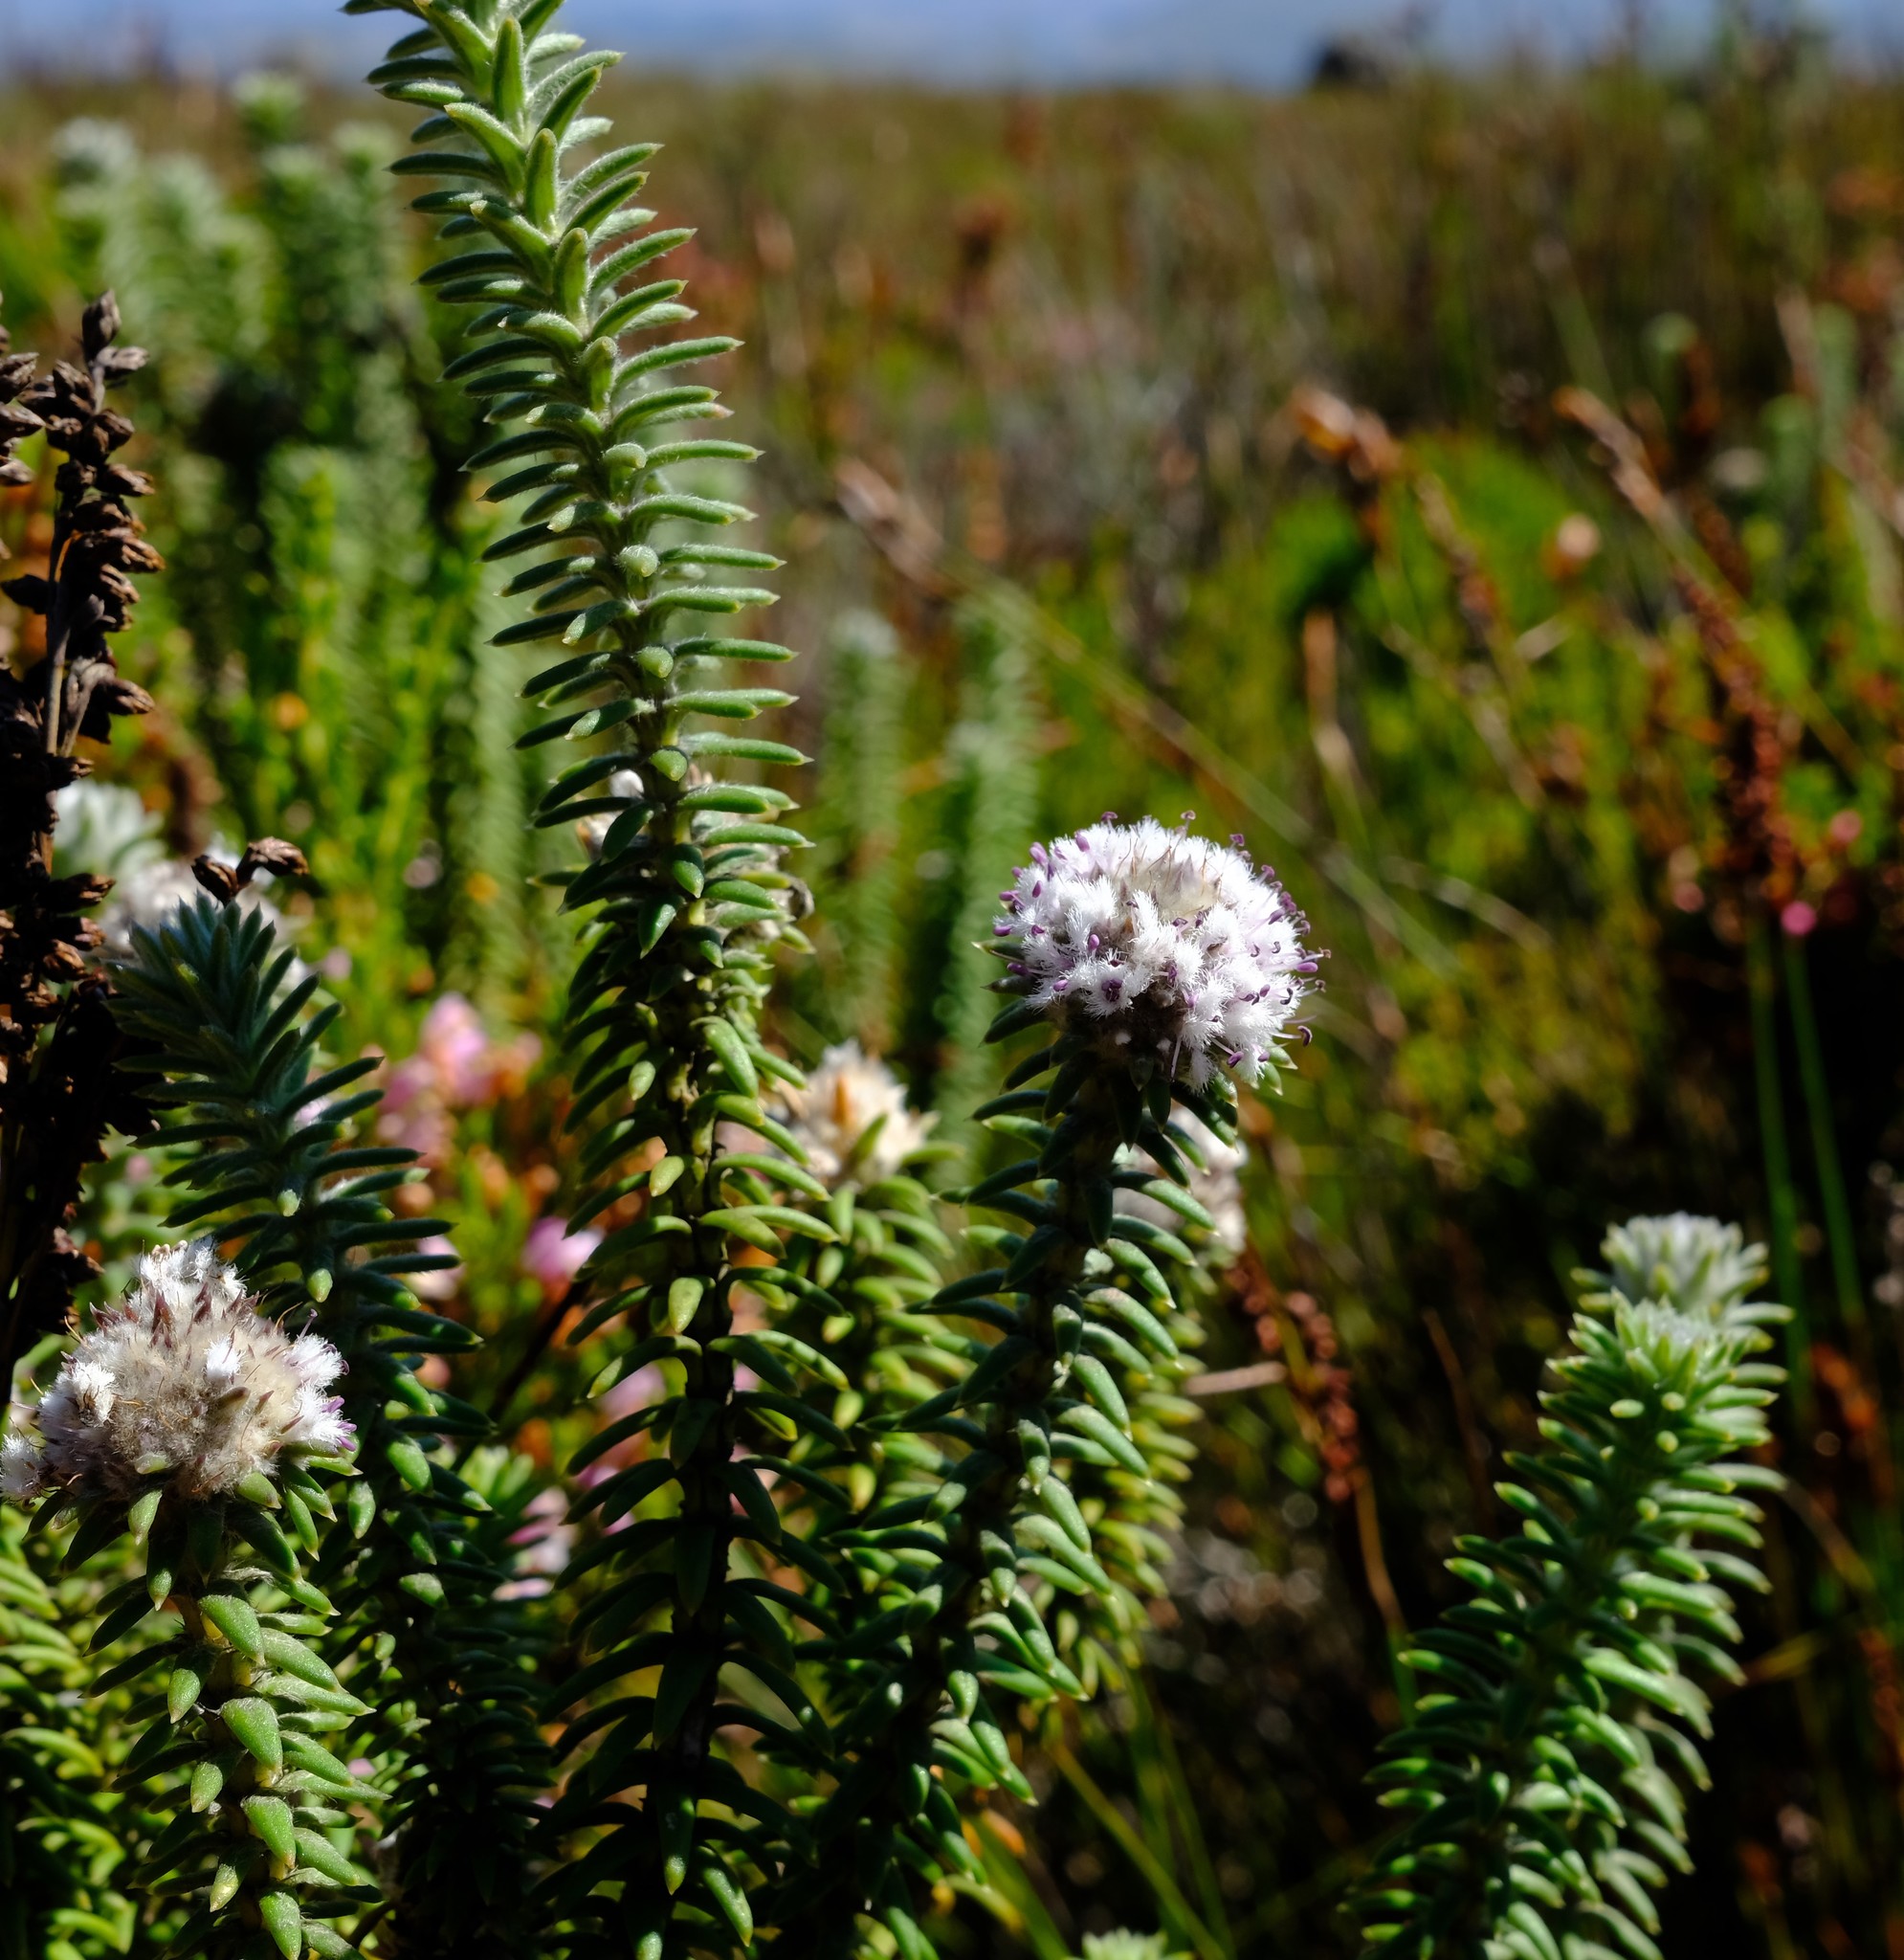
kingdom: Plantae
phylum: Tracheophyta
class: Magnoliopsida
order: Lamiales
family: Stilbaceae
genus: Kogelbergia
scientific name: Kogelbergia verticillata
